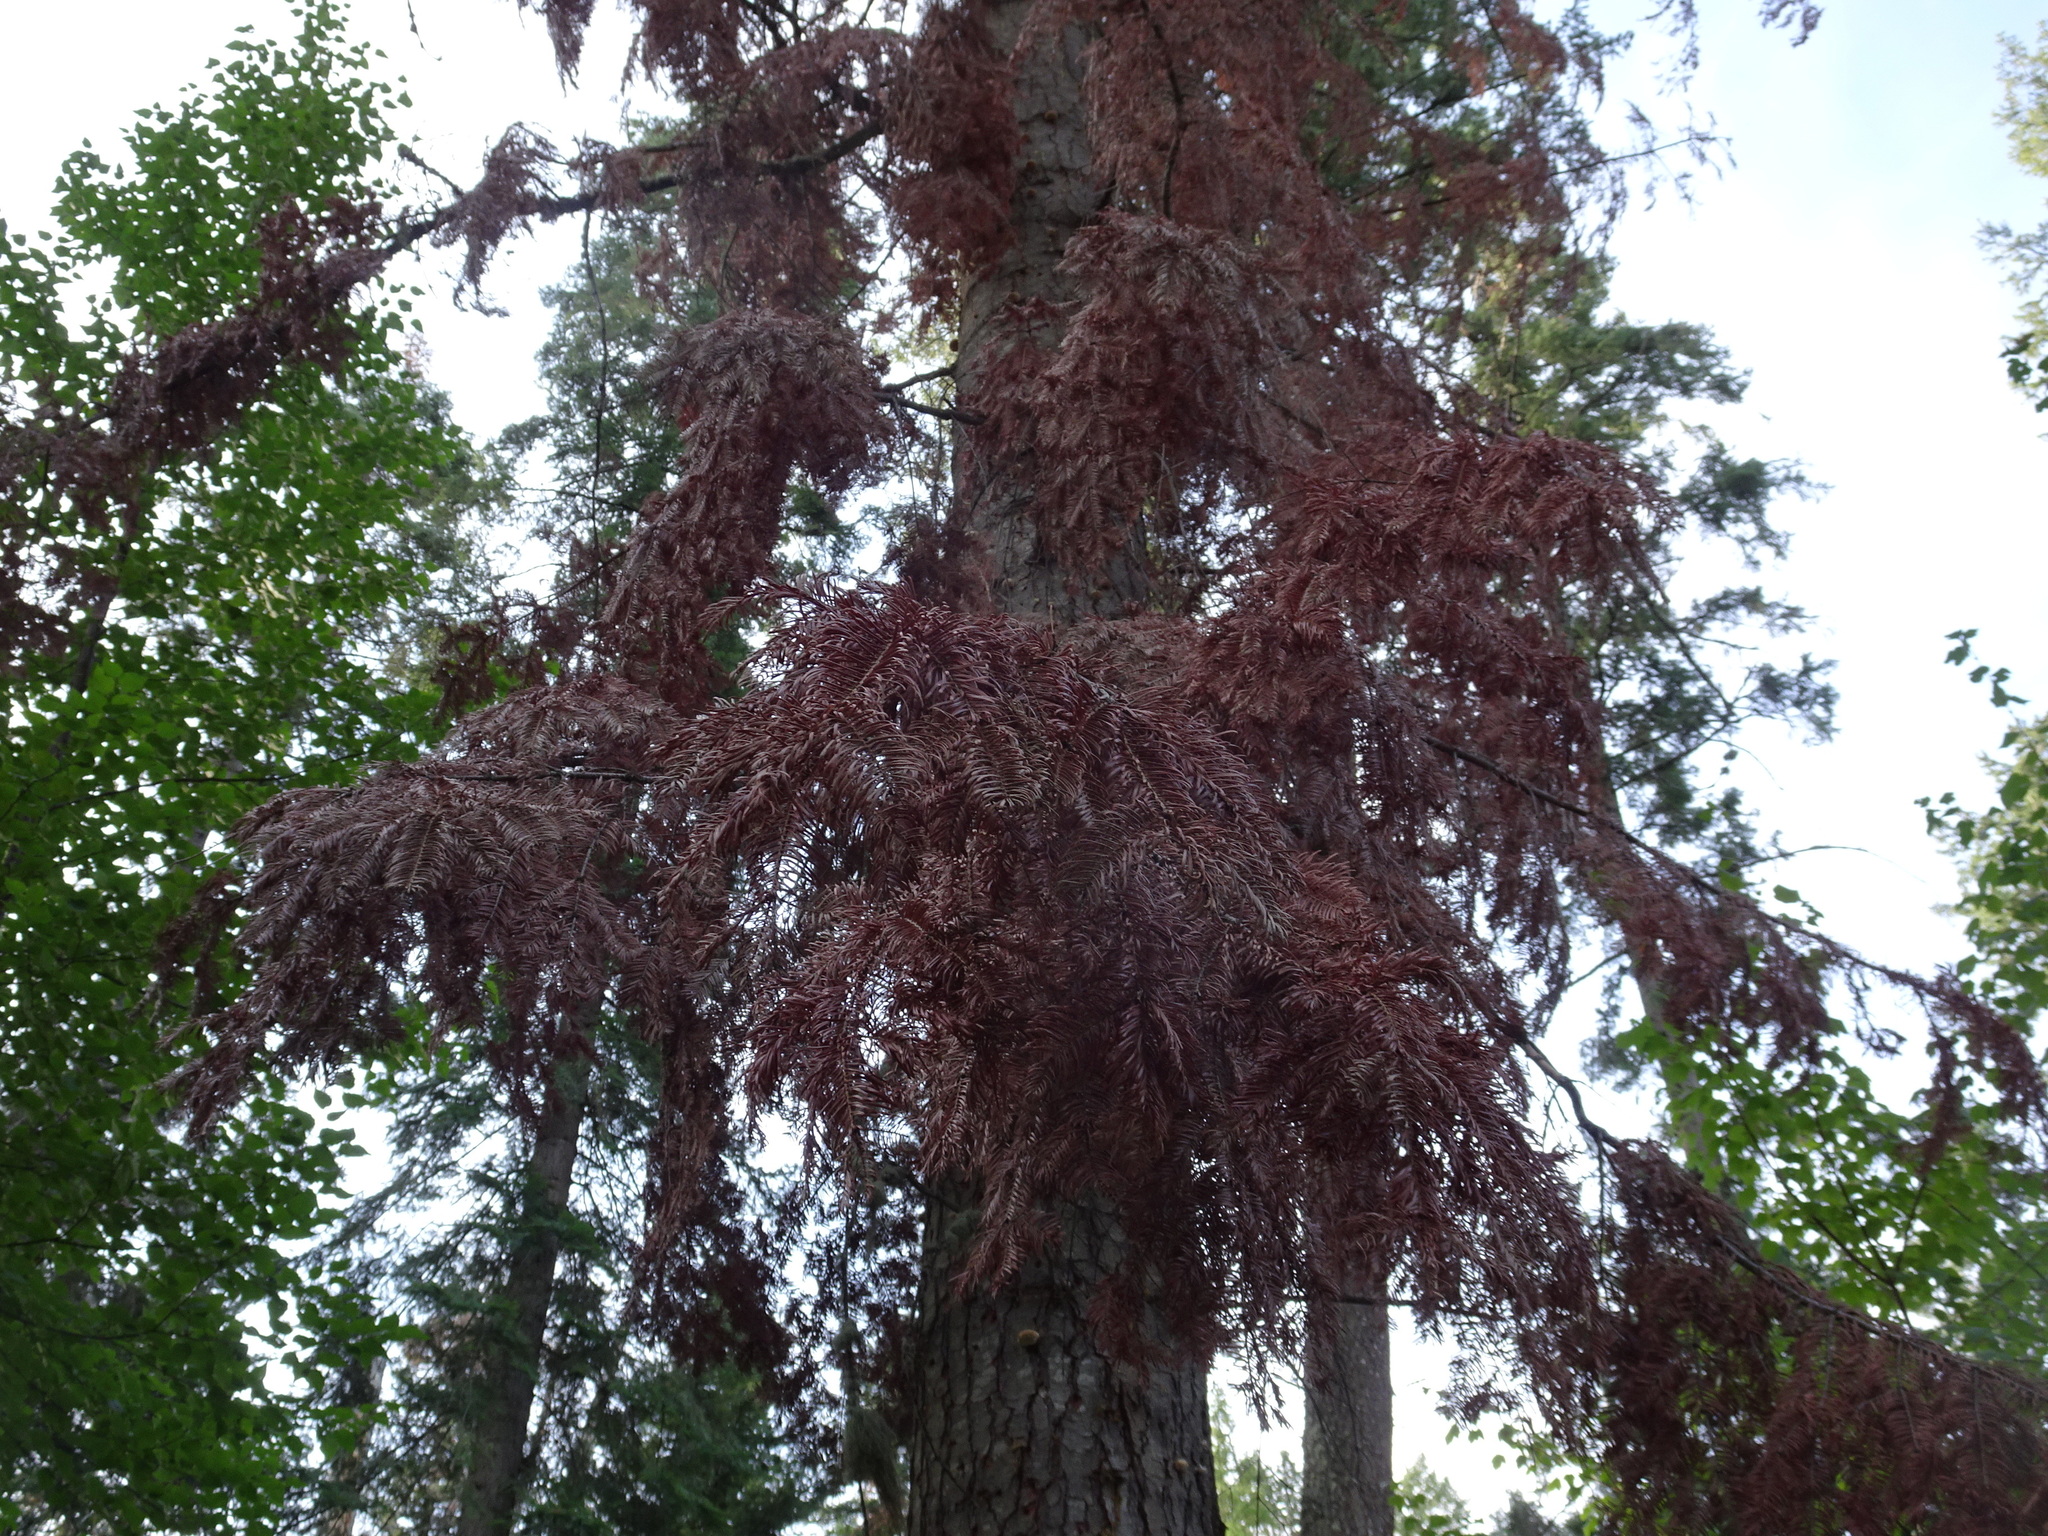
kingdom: Fungi
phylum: Basidiomycota
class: Agaricomycetes
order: Polyporales
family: Polyporaceae
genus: Cryptoporus
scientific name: Cryptoporus volvatus
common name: Veiled polypore
